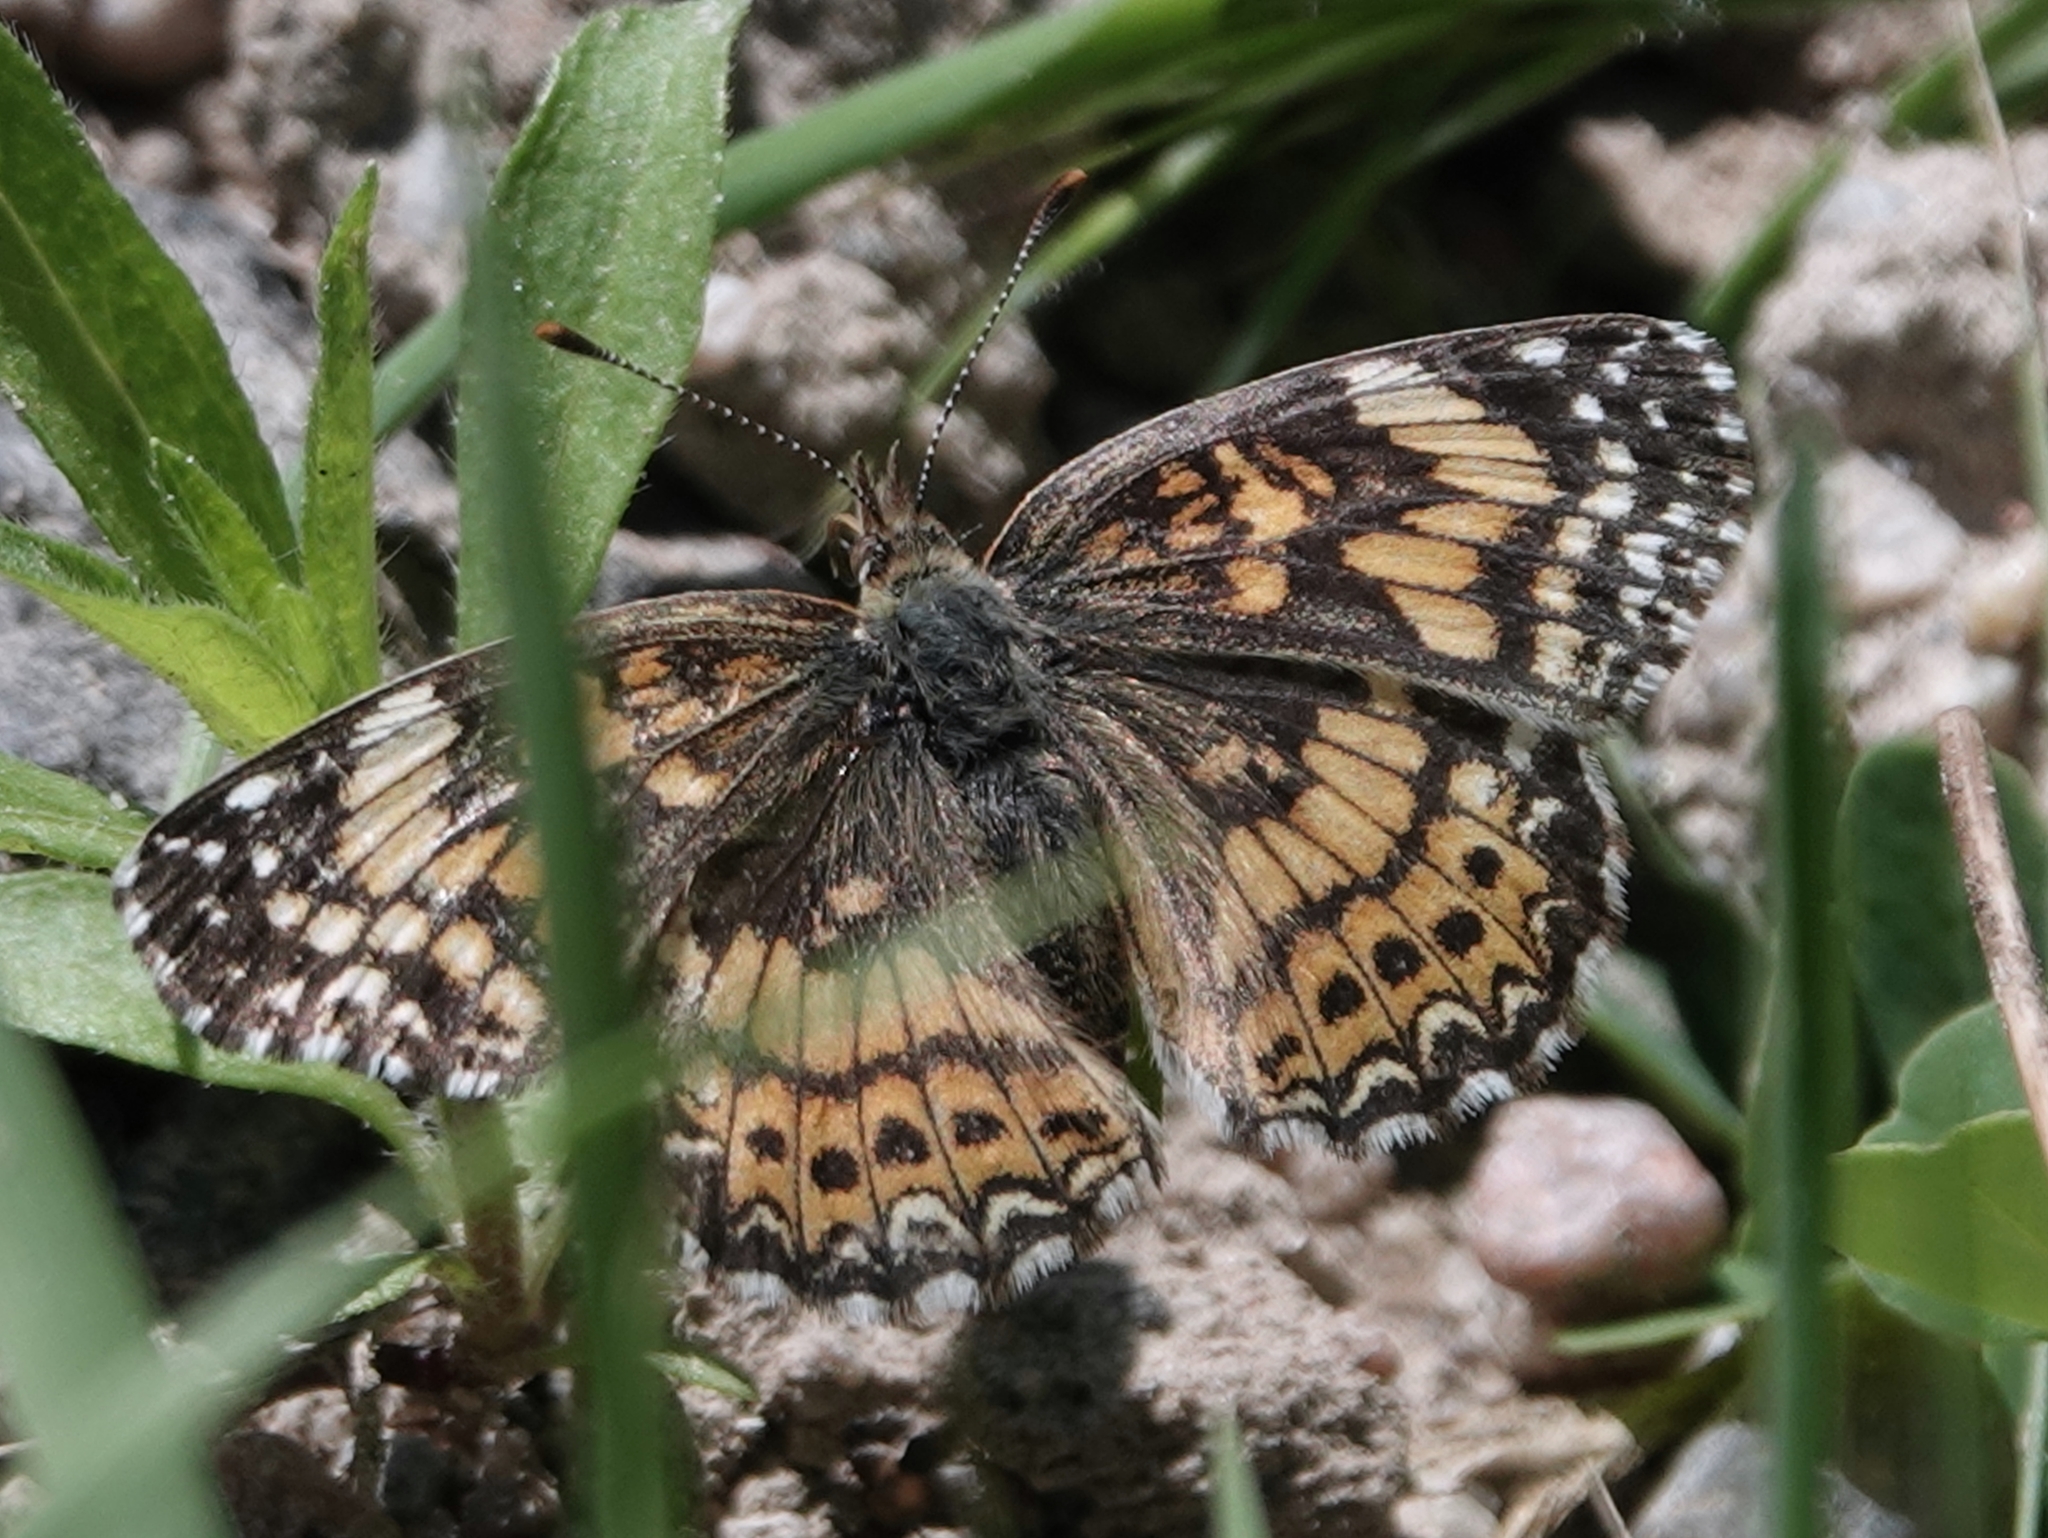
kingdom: Animalia
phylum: Arthropoda
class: Insecta
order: Lepidoptera
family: Nymphalidae
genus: Chlosyne
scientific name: Chlosyne gorgone
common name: Gorgone checkerspot
